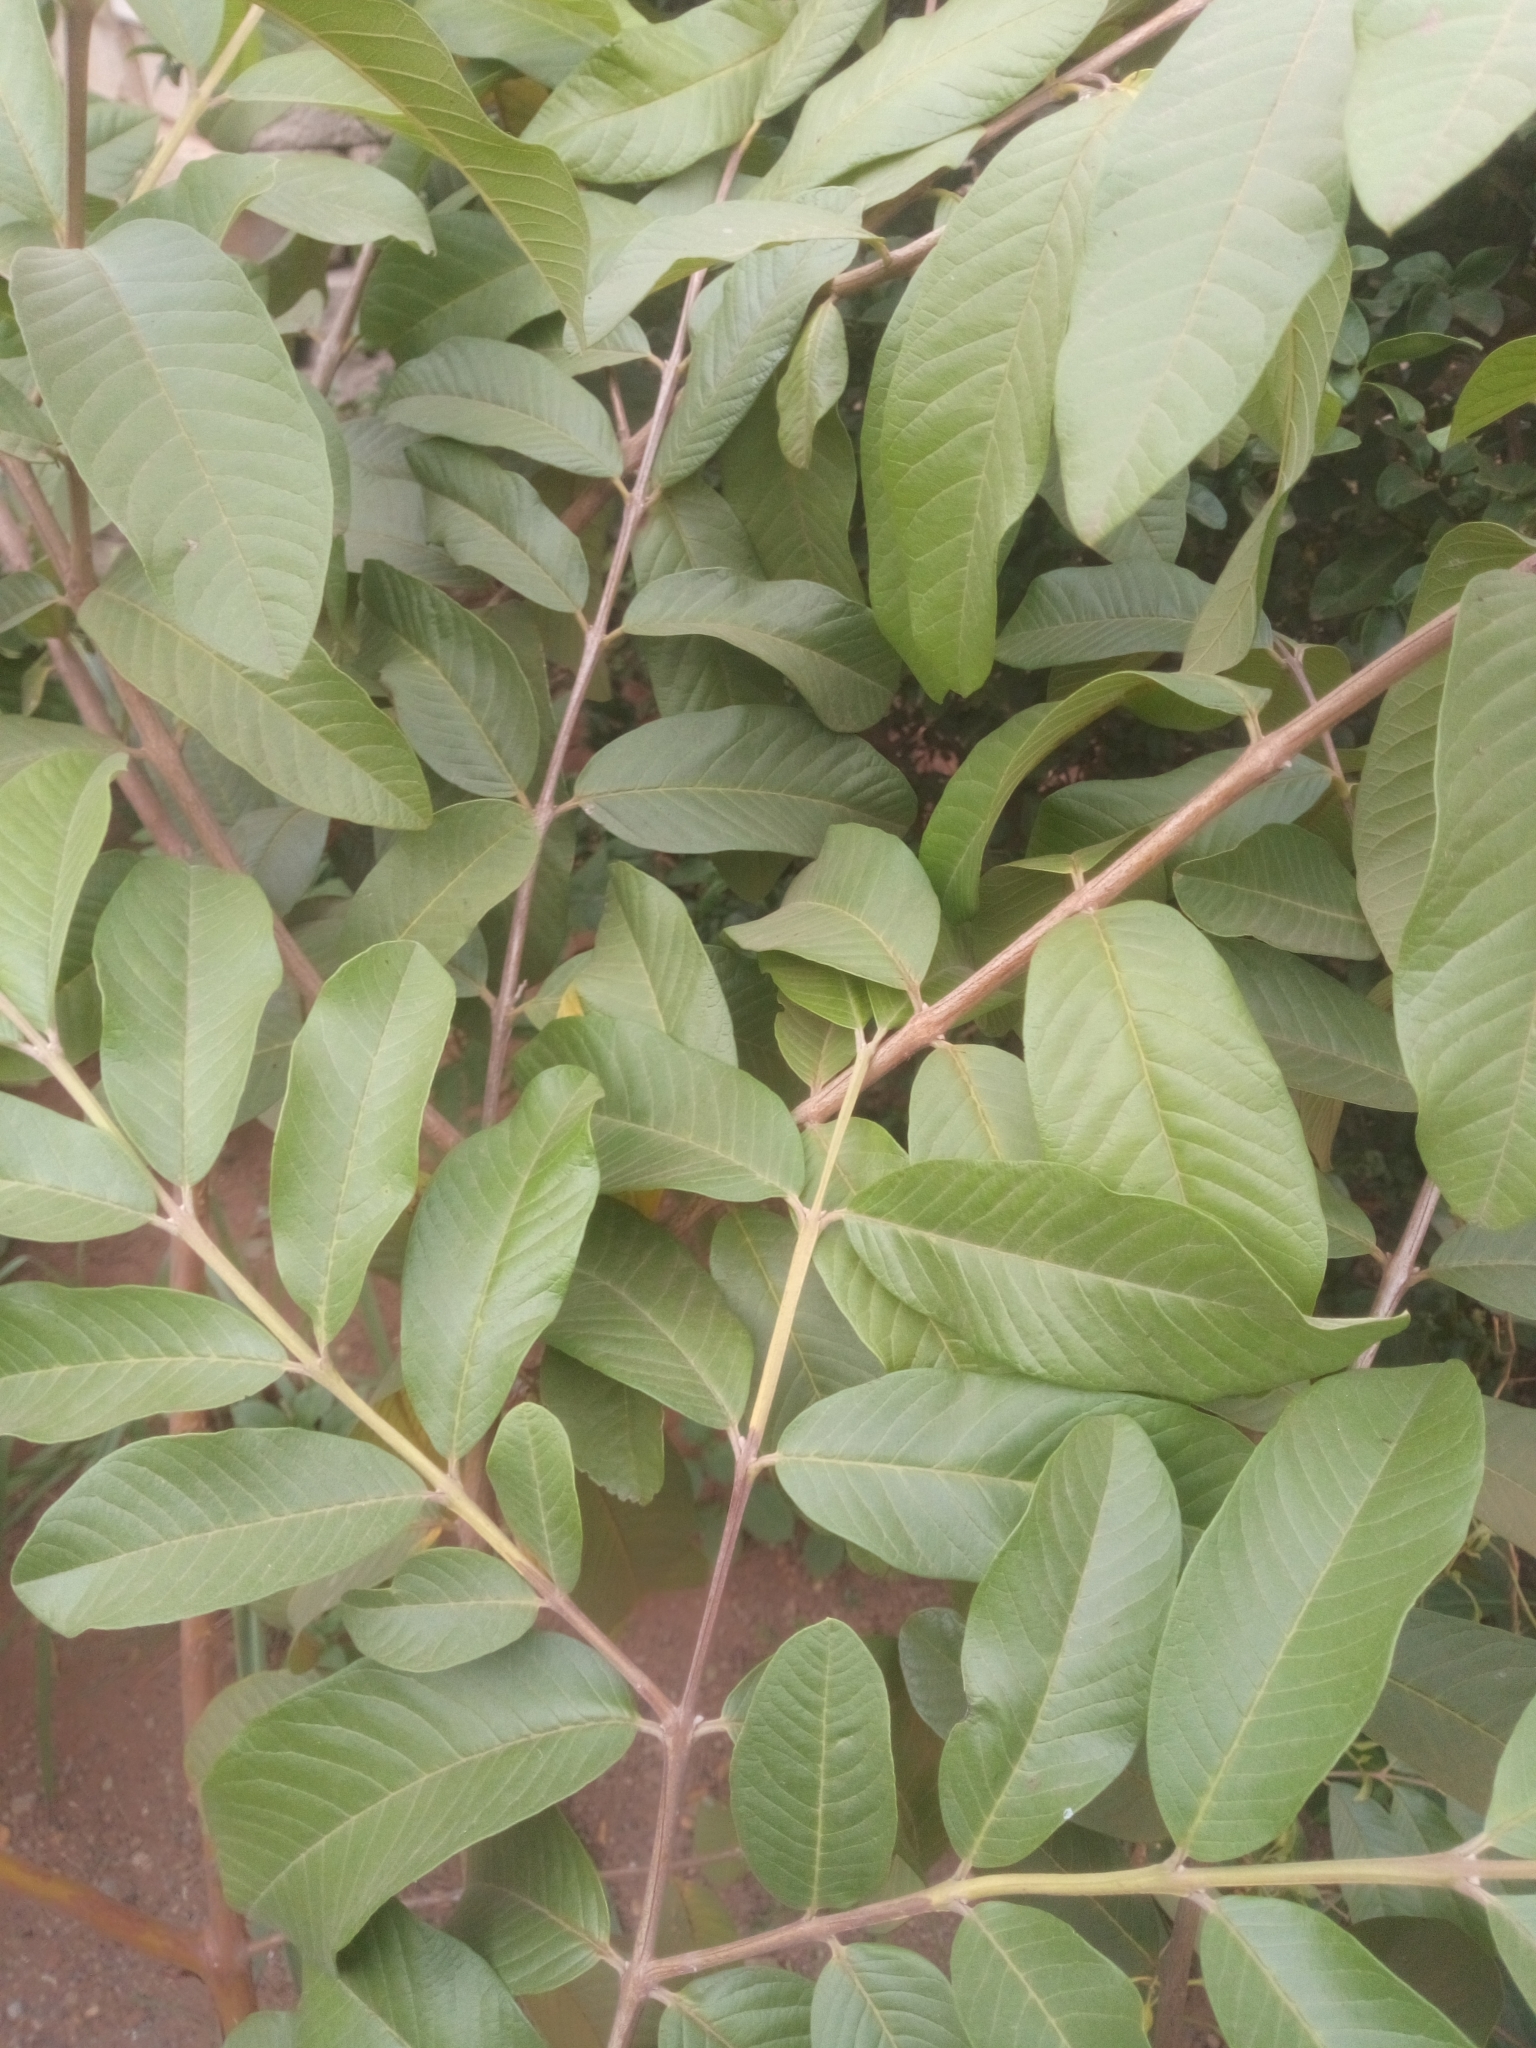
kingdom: Plantae
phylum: Tracheophyta
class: Magnoliopsida
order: Myrtales
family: Myrtaceae
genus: Psidium
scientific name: Psidium guajava
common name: Guava
